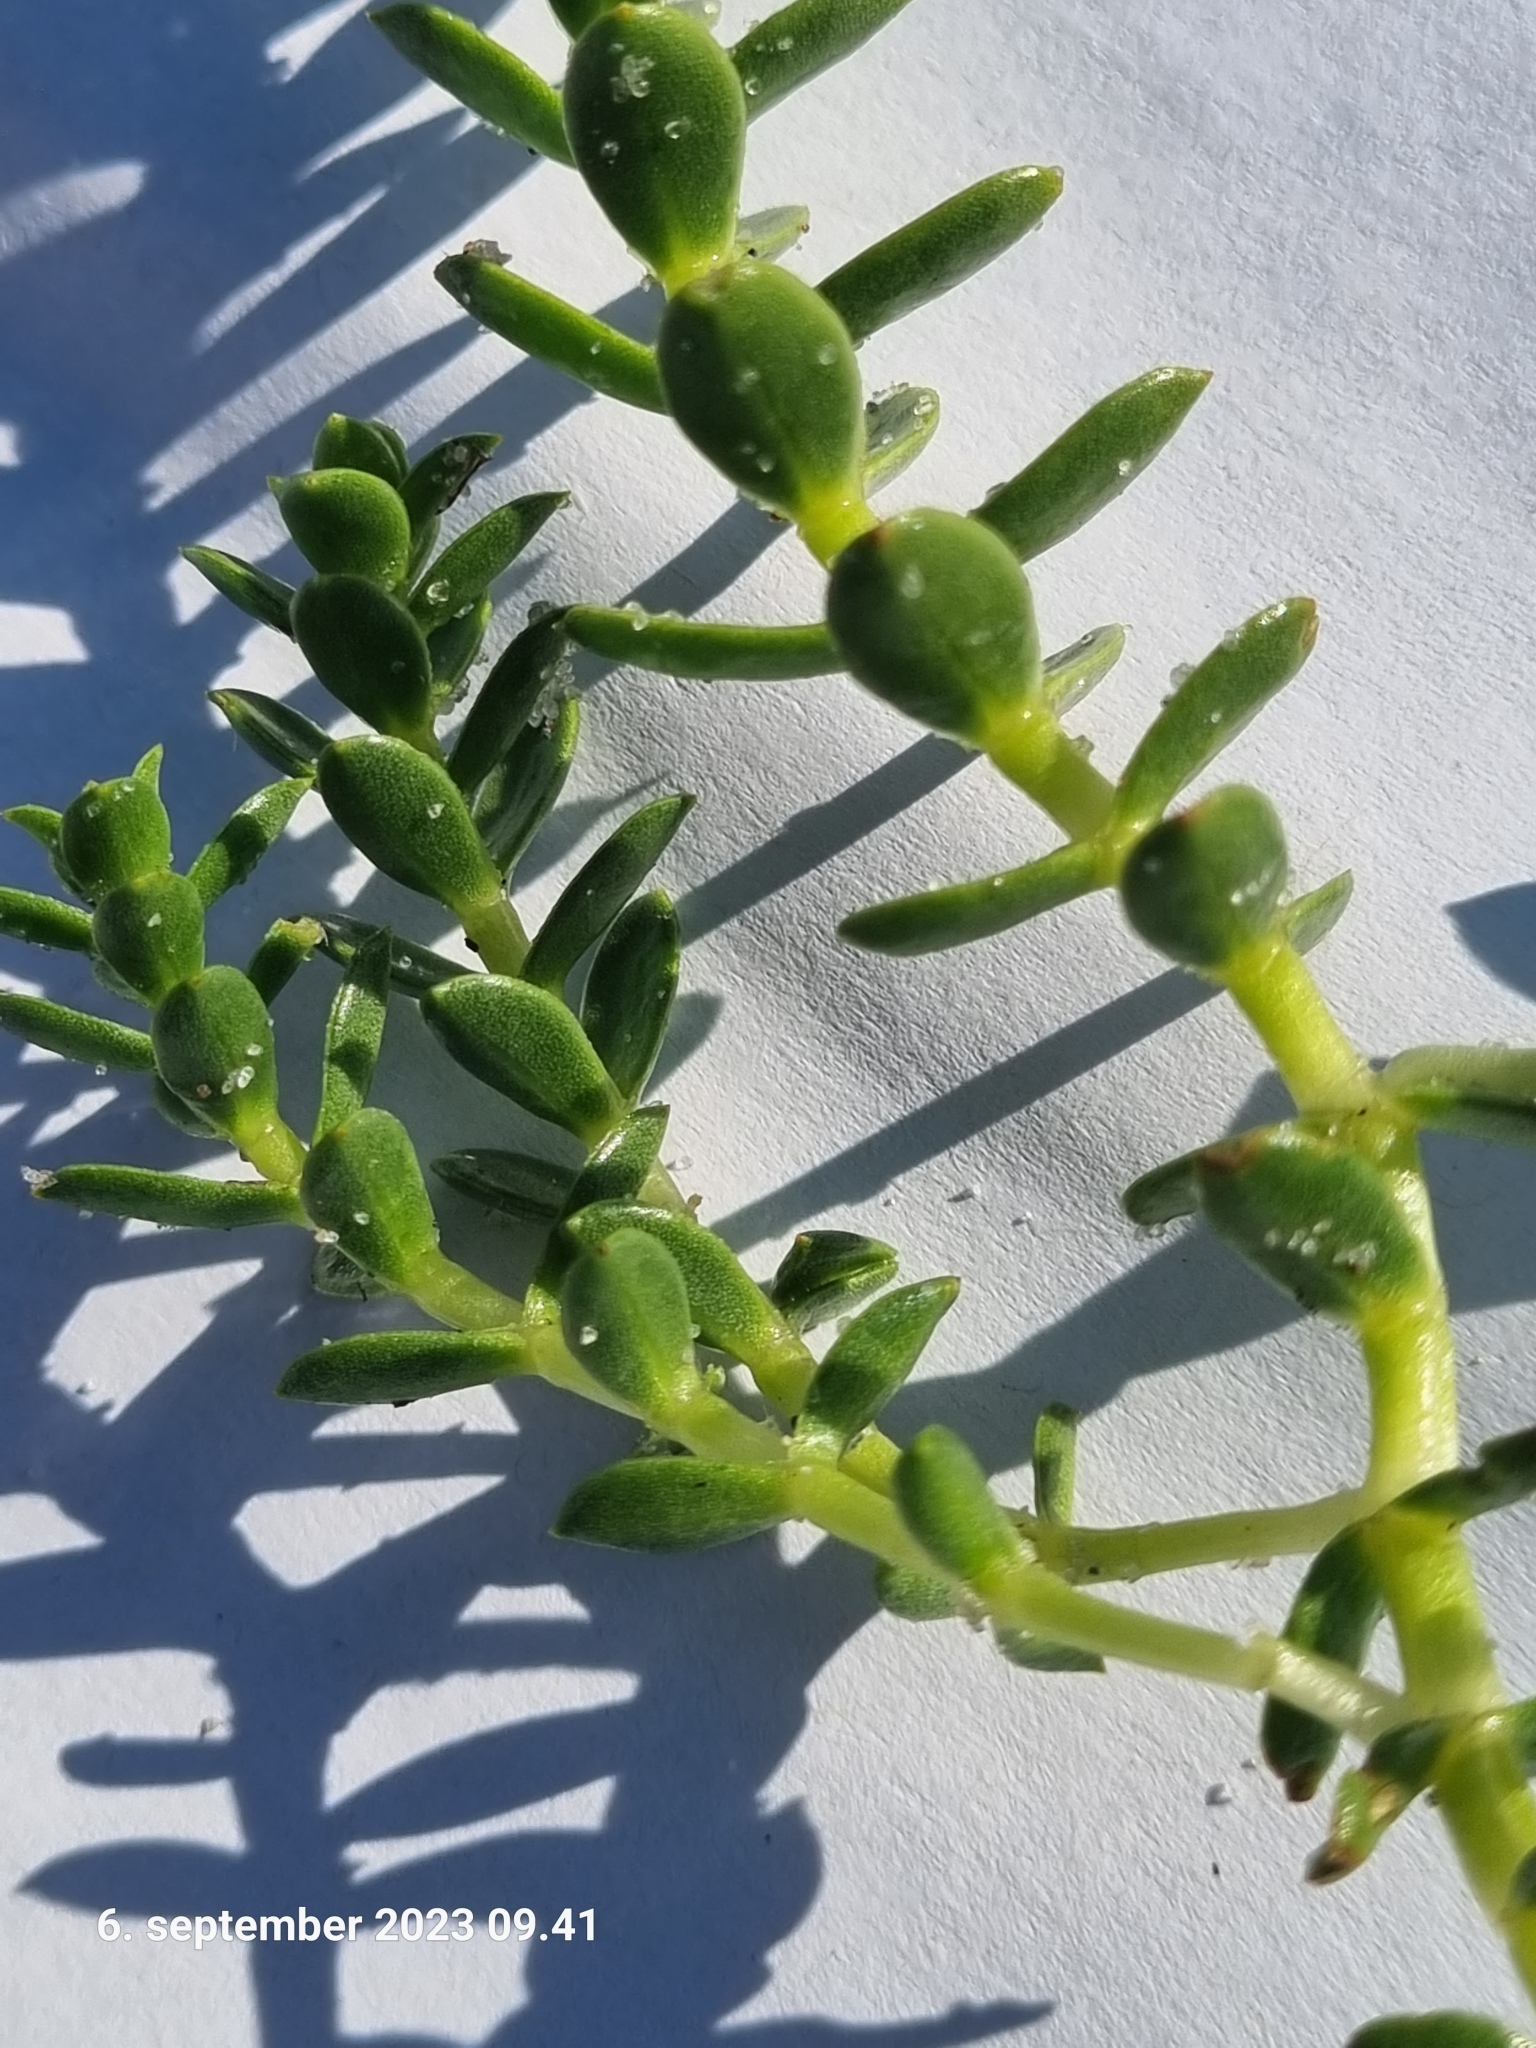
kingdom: Plantae
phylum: Tracheophyta
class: Magnoliopsida
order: Caryophyllales
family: Caryophyllaceae
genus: Honckenya
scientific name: Honckenya peploides
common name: Sea sandwort
